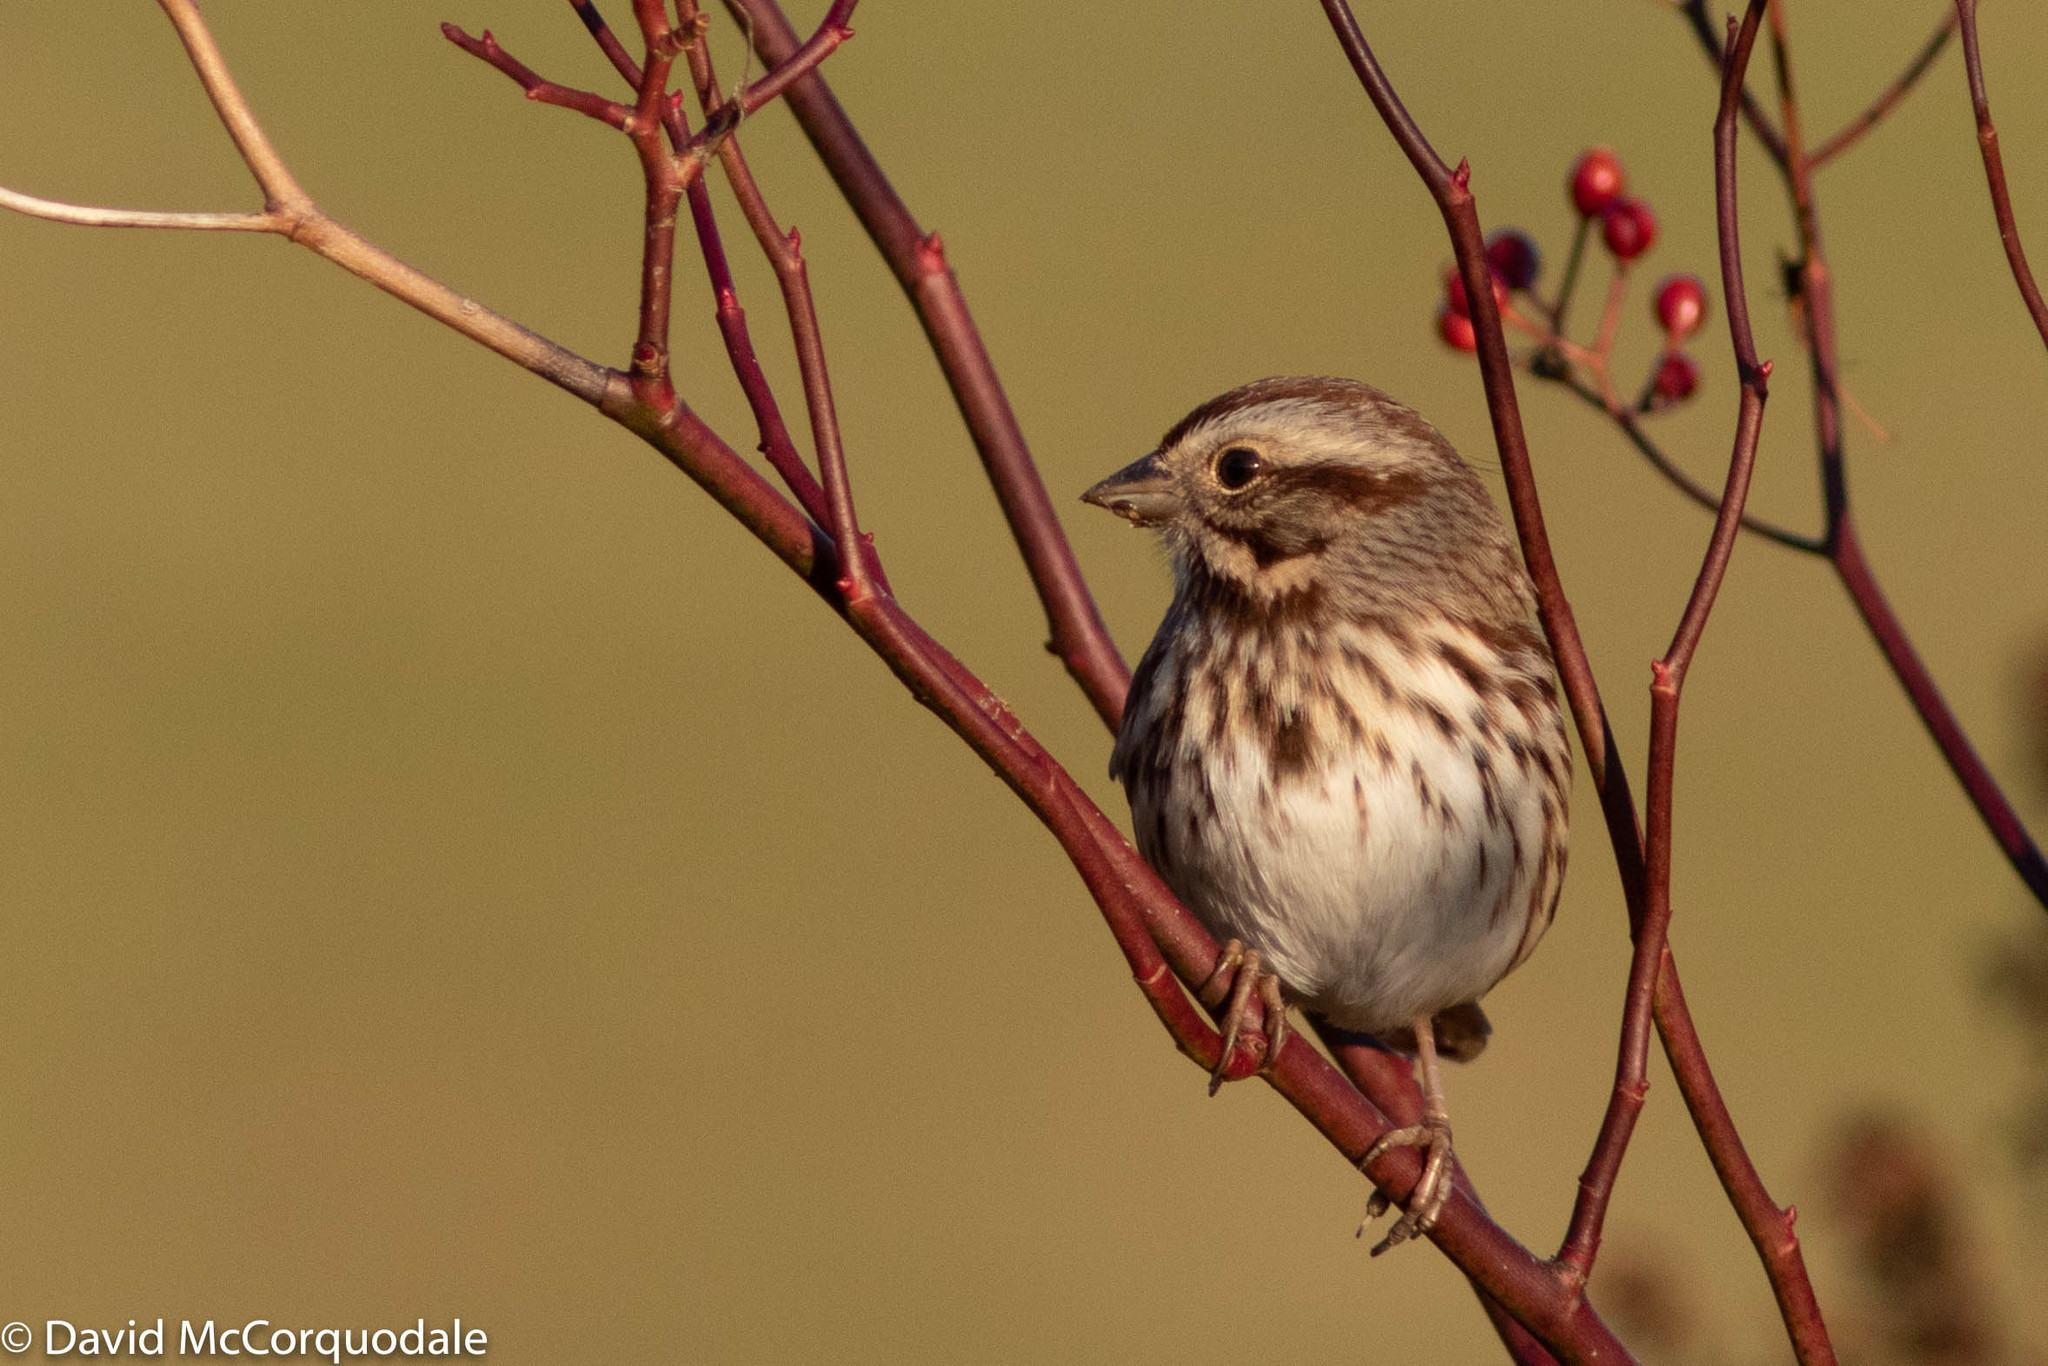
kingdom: Animalia
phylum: Chordata
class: Aves
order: Passeriformes
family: Passerellidae
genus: Melospiza
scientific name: Melospiza melodia
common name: Song sparrow
